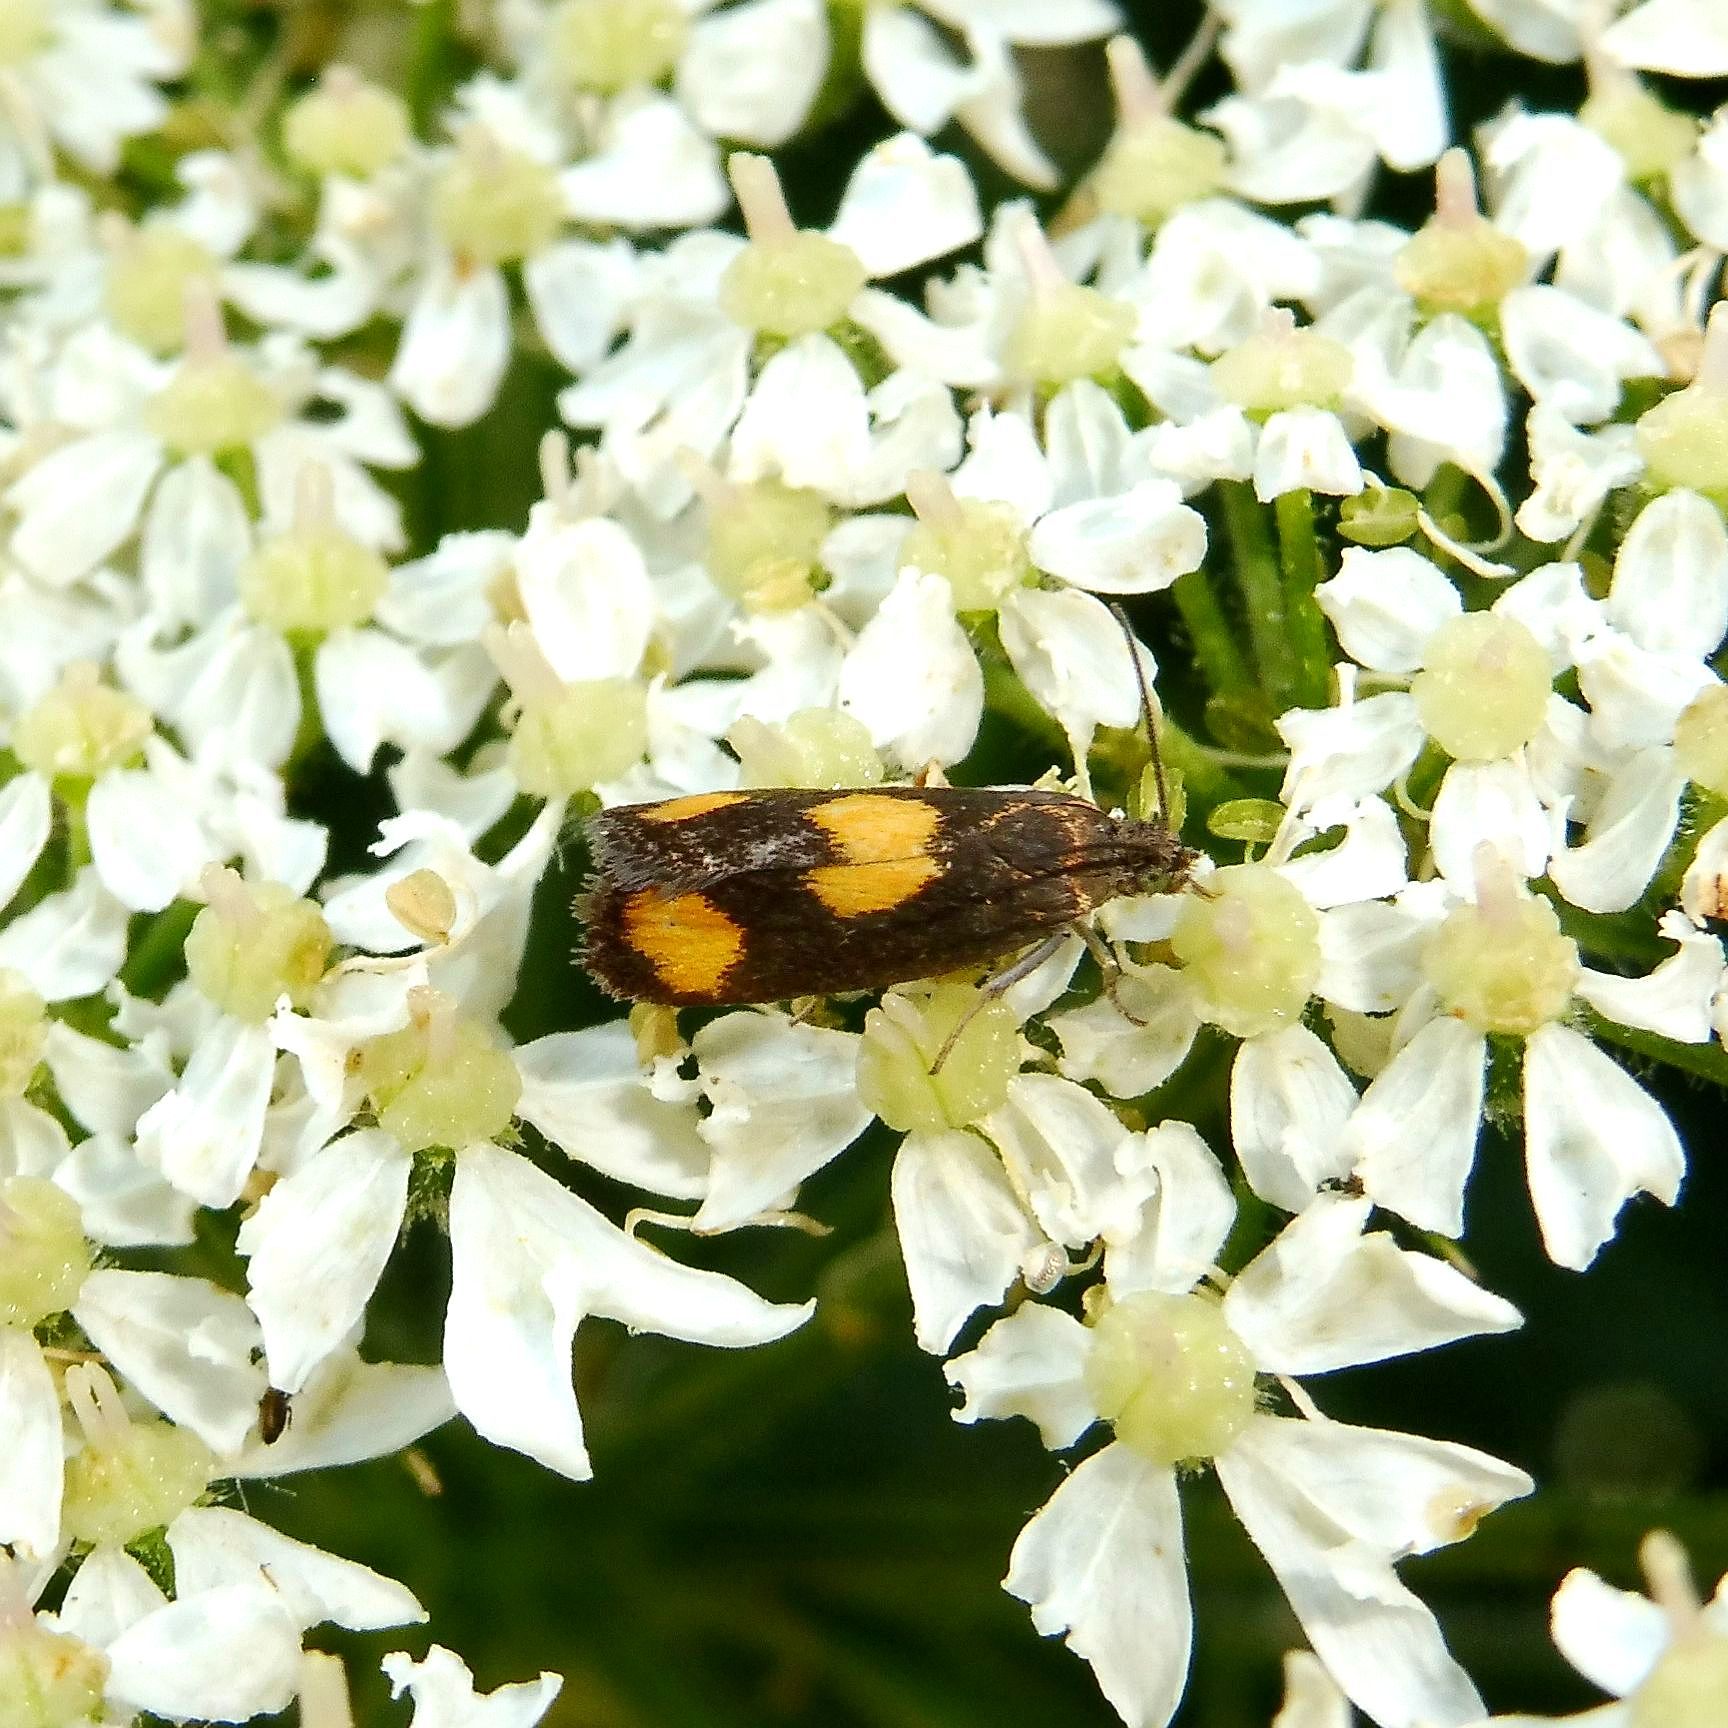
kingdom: Animalia
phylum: Arthropoda
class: Insecta
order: Lepidoptera
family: Tortricidae
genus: Pammene
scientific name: Pammene aurana
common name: Orange-spot piercer
